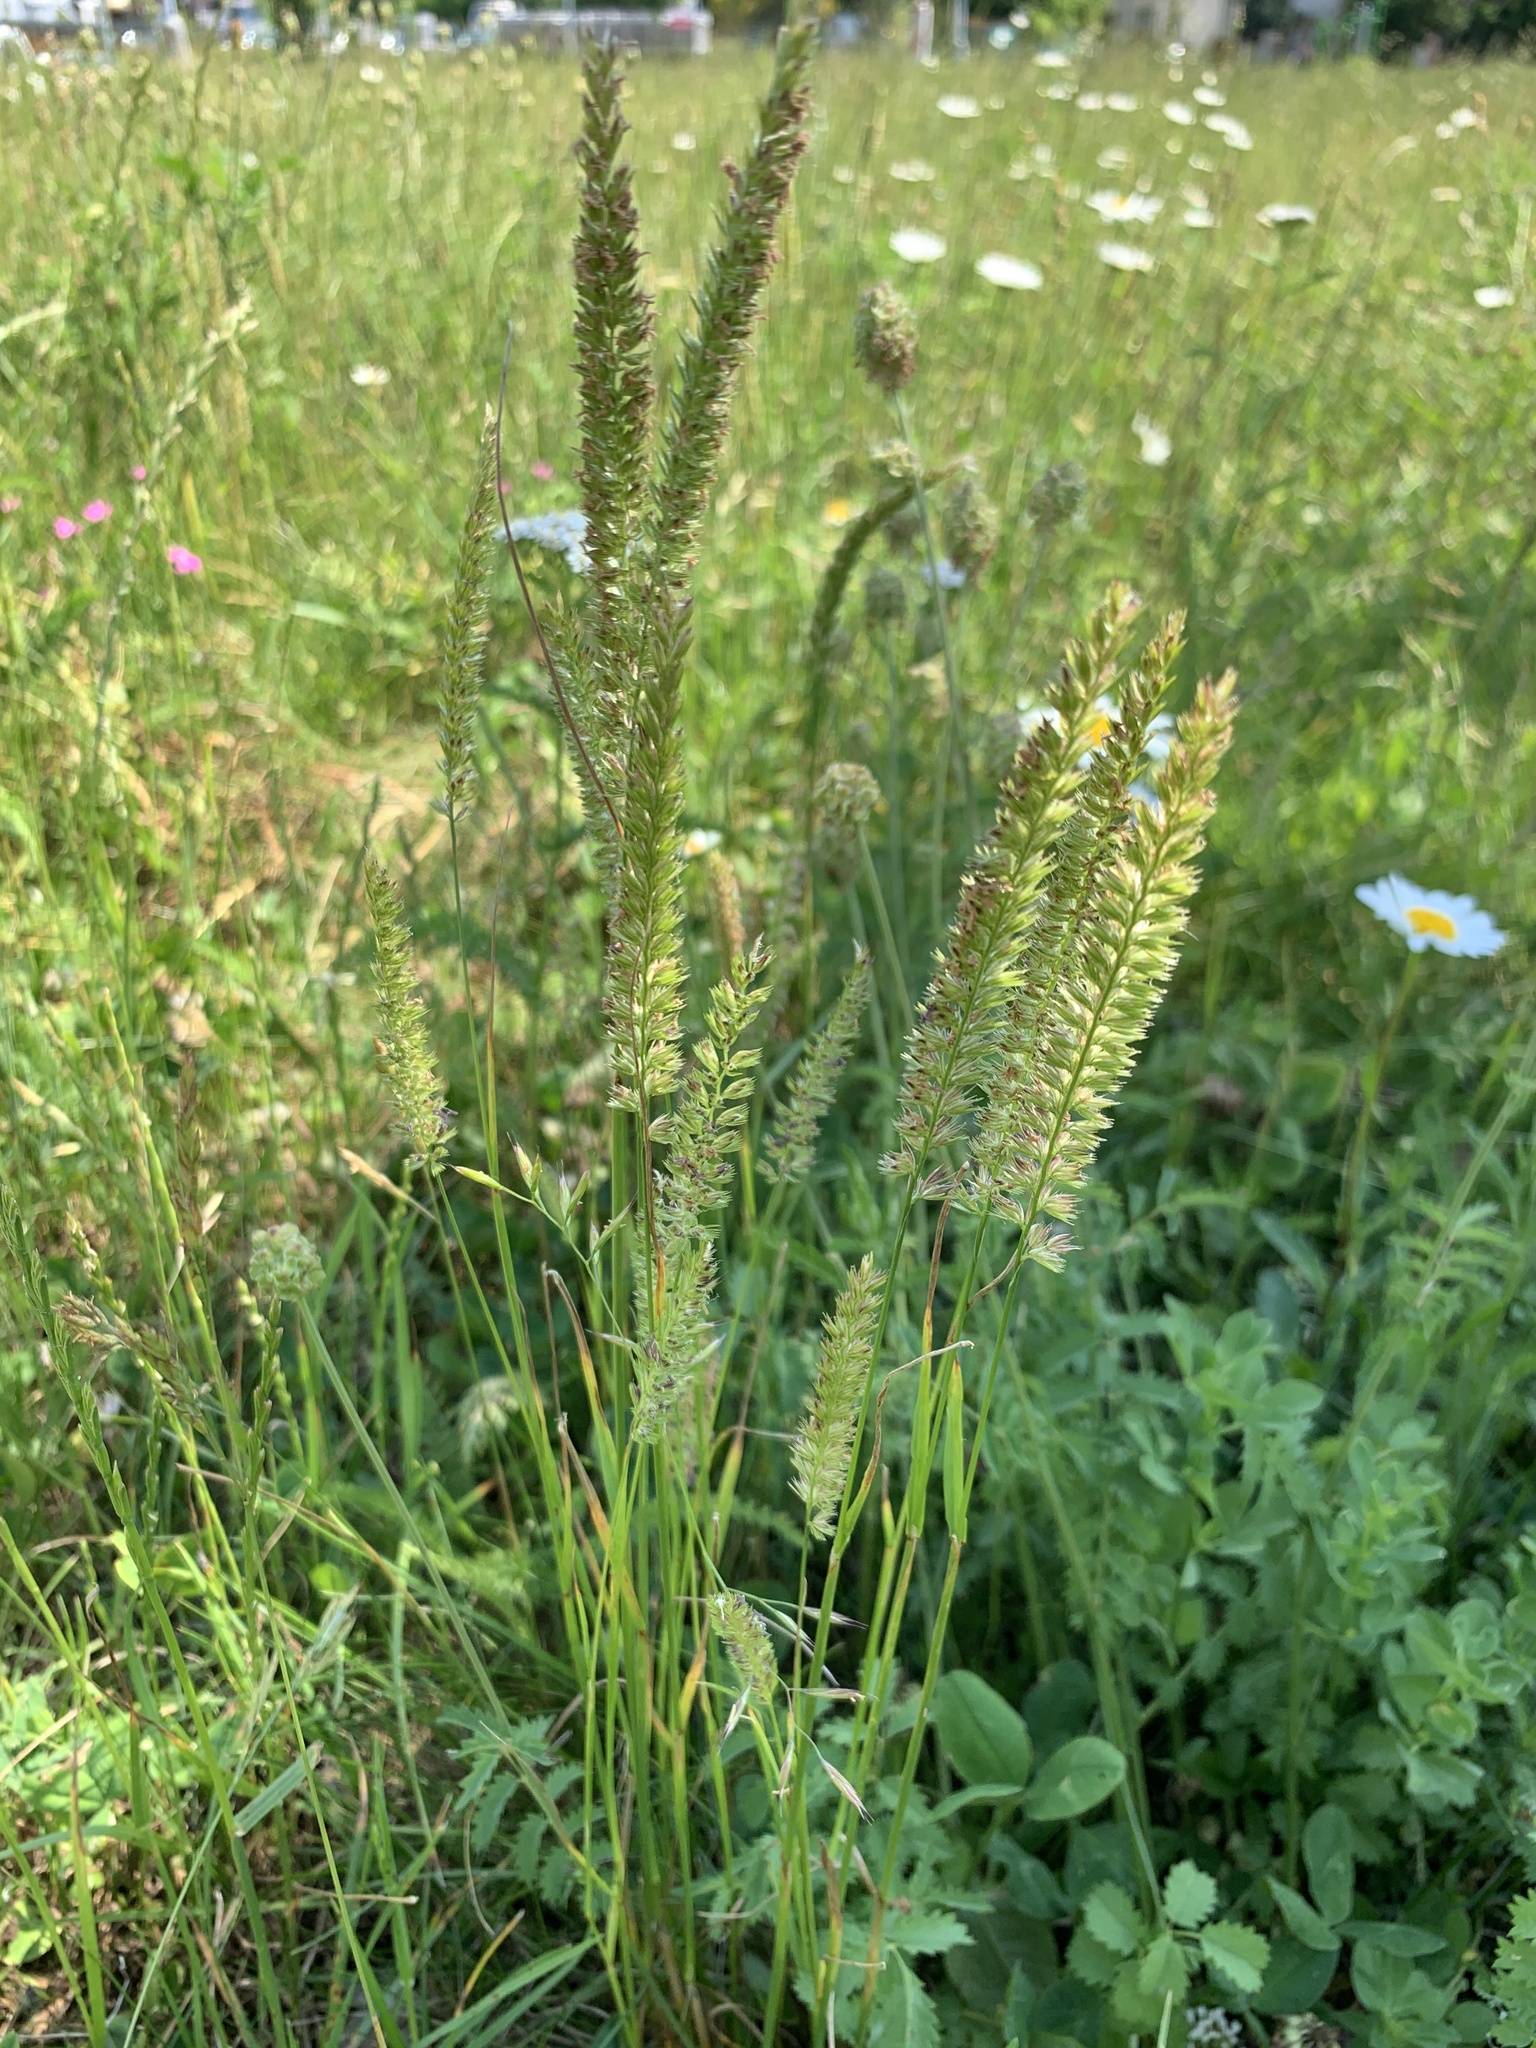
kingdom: Plantae
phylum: Tracheophyta
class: Liliopsida
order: Poales
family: Poaceae
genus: Cynosurus
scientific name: Cynosurus cristatus
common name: Crested dog's-tail
